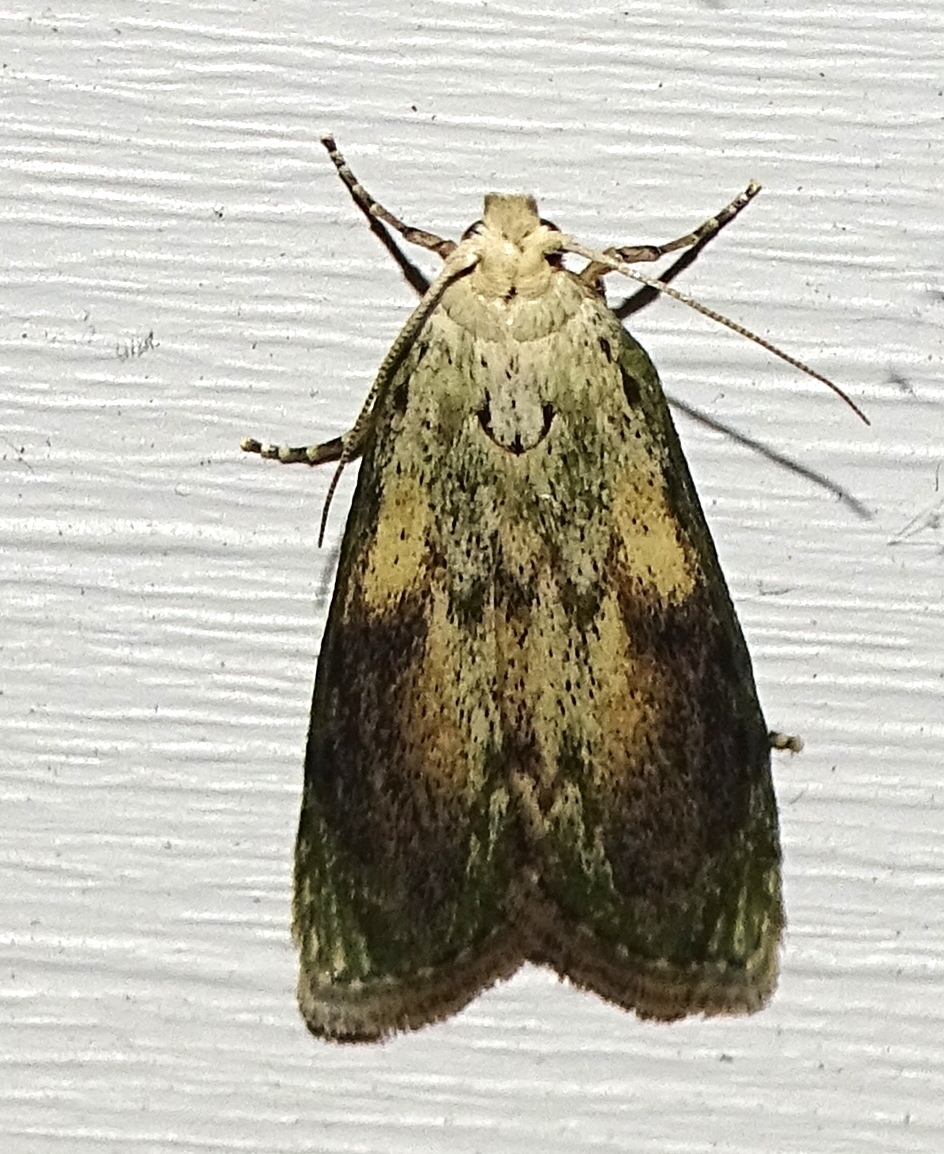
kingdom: Animalia
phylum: Arthropoda
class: Insecta
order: Lepidoptera
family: Pyralidae
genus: Aphomia
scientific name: Aphomia sociella
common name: Bee moth
